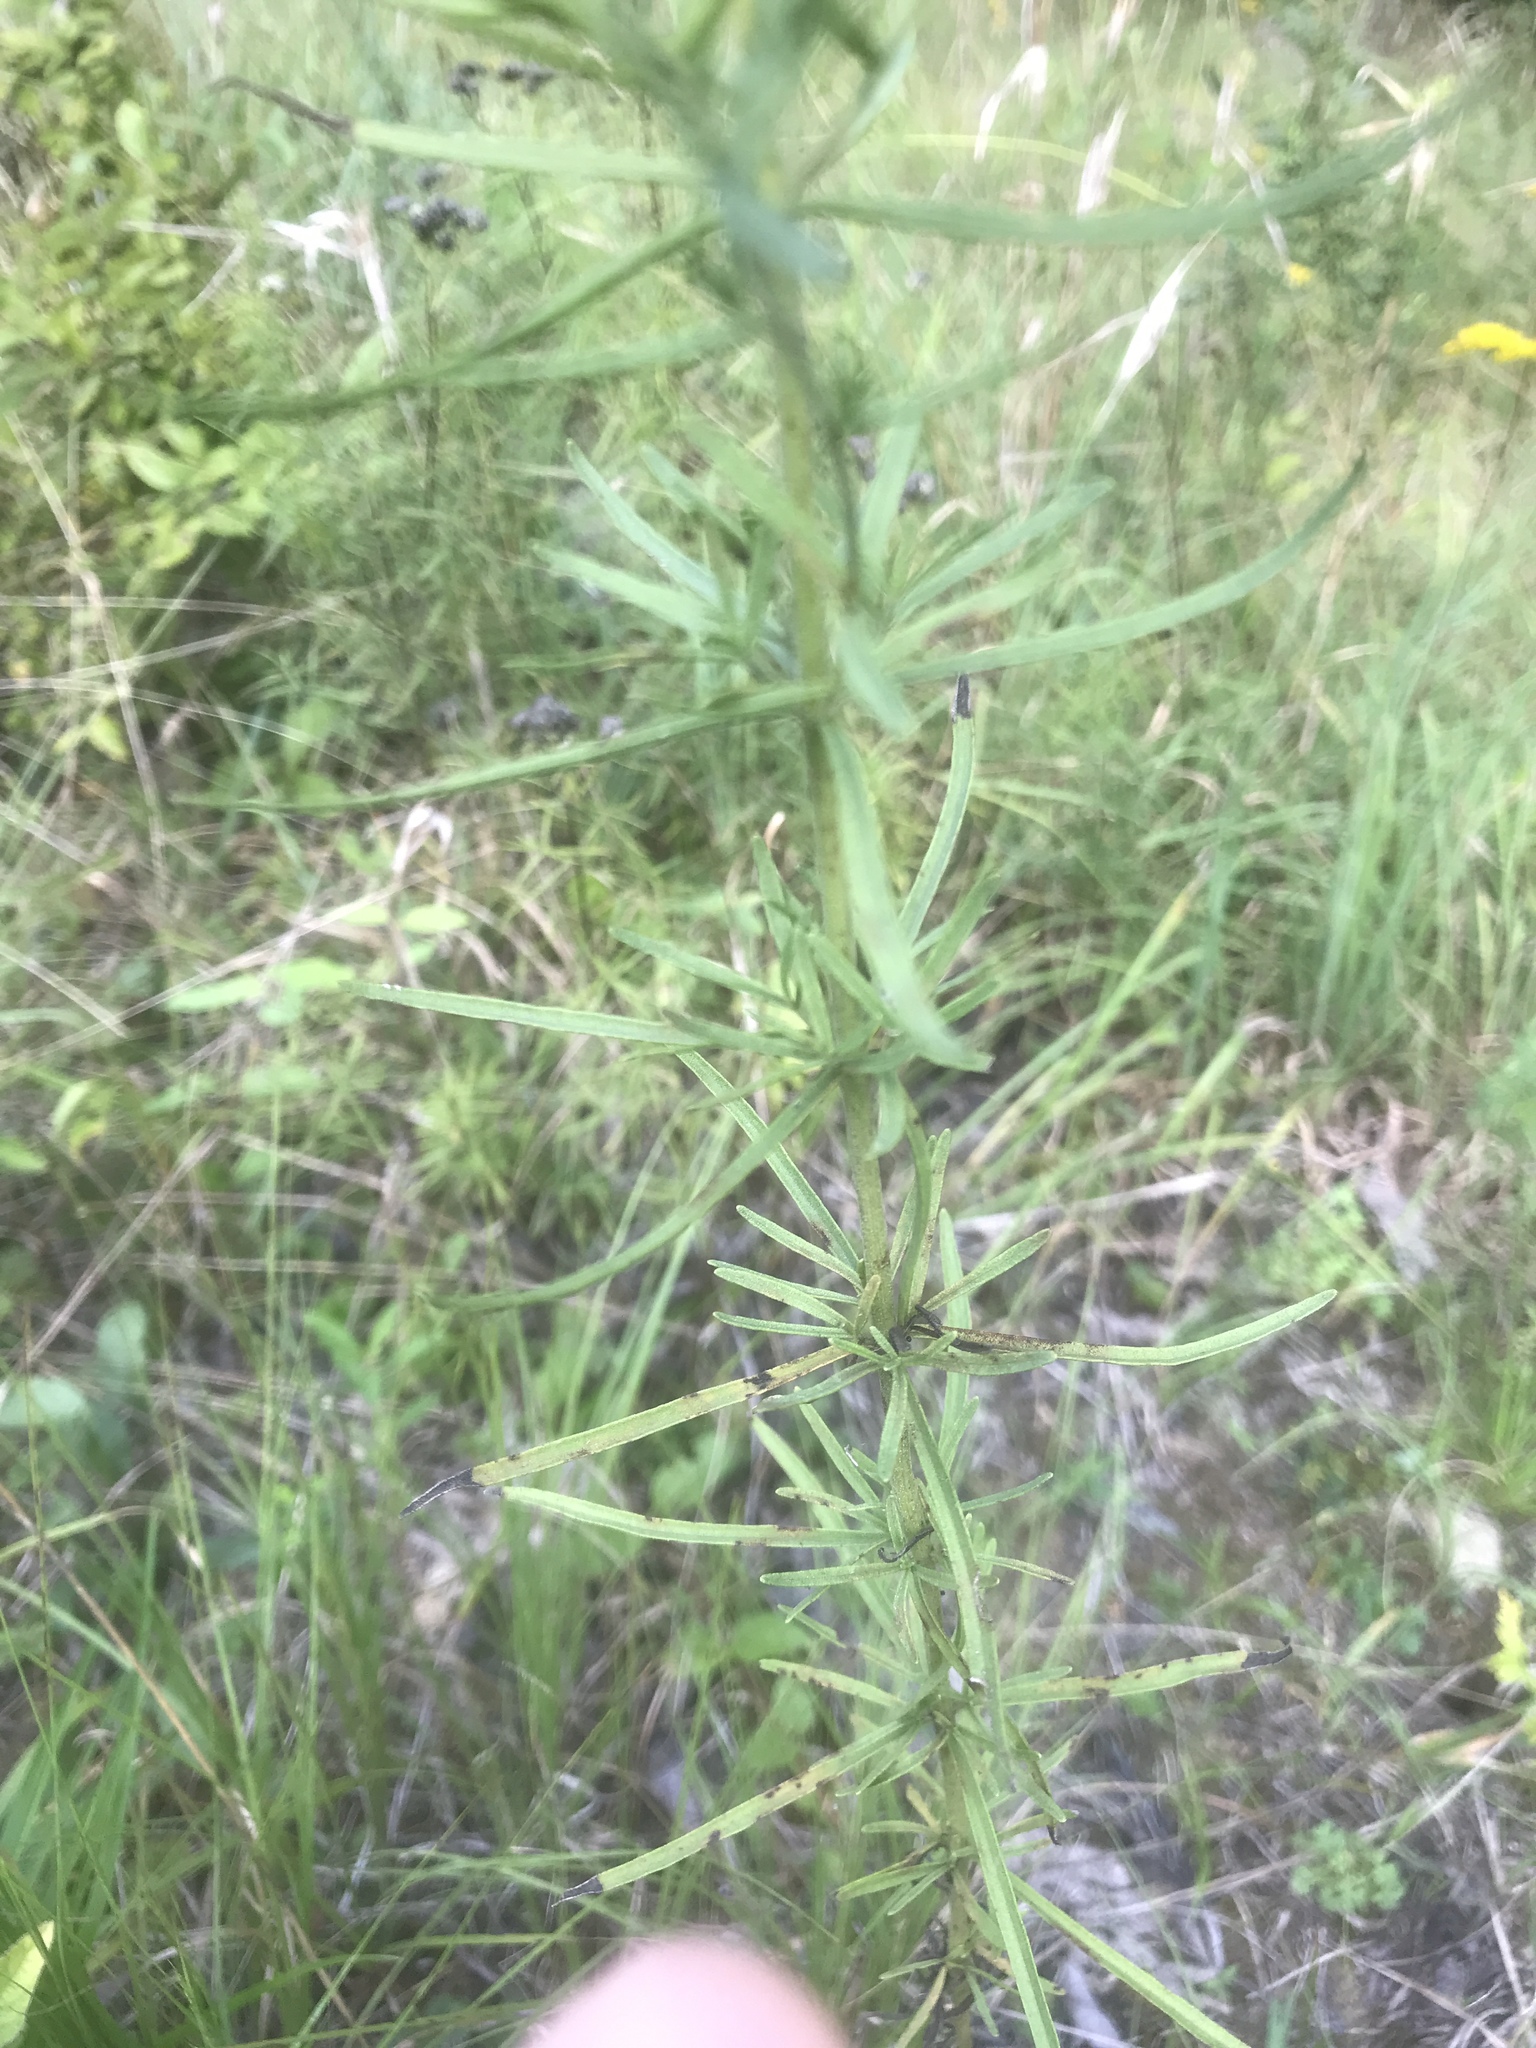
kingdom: Plantae
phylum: Tracheophyta
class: Magnoliopsida
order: Asterales
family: Asteraceae
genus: Eupatorium
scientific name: Eupatorium hyssopifolium
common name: Hyssop-leaf thoroughwort
